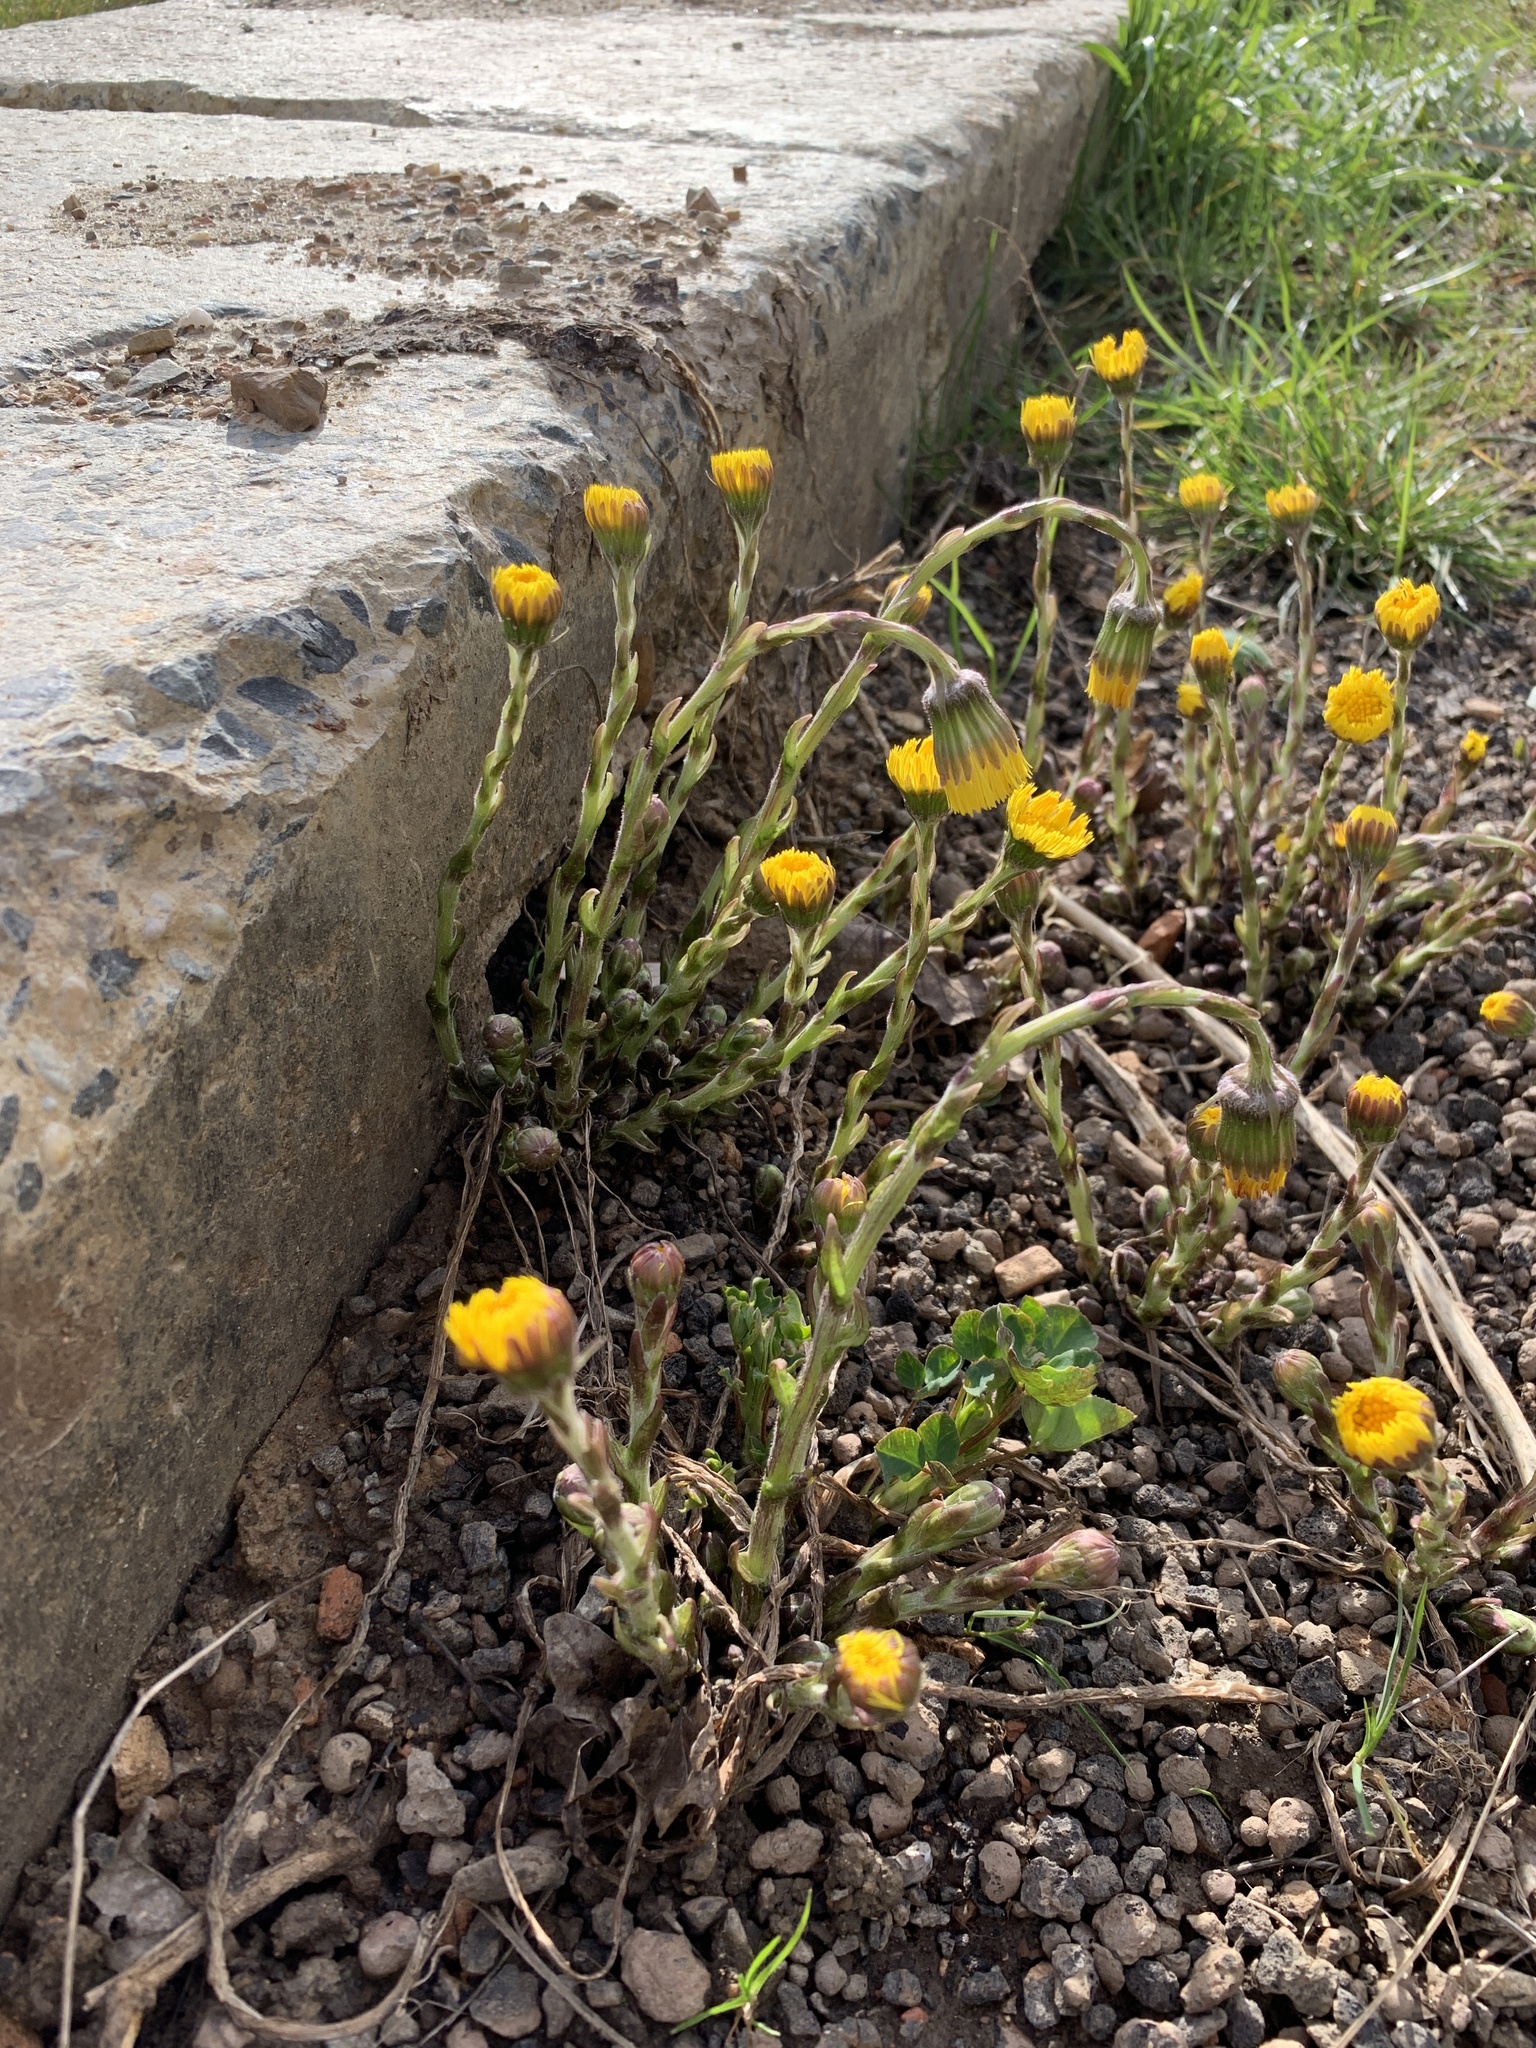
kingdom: Plantae
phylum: Tracheophyta
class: Magnoliopsida
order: Asterales
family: Asteraceae
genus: Tussilago
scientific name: Tussilago farfara
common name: Coltsfoot
